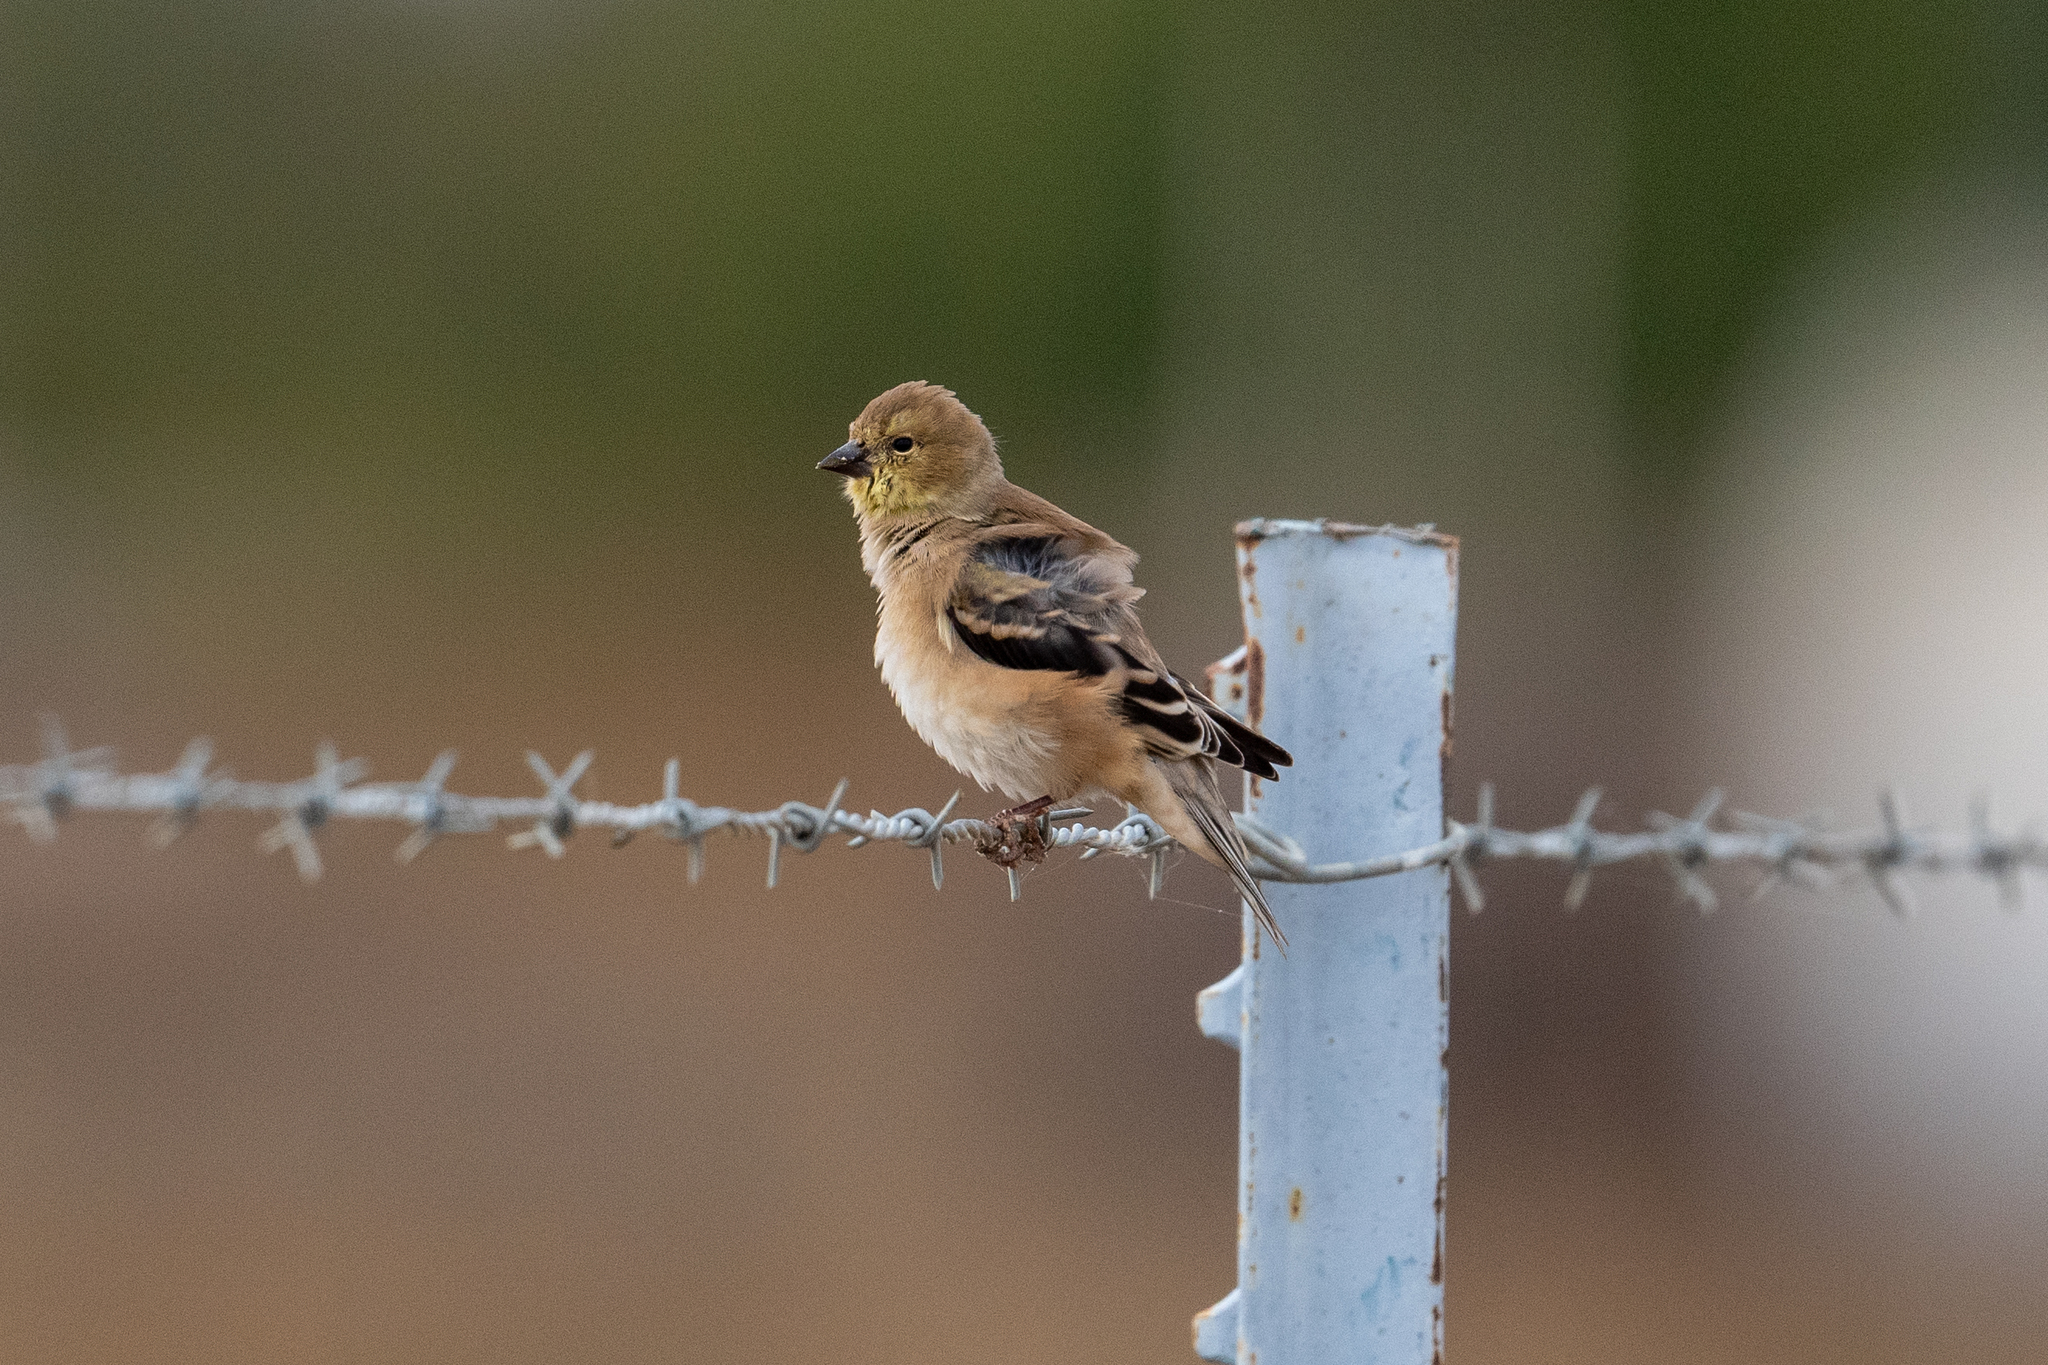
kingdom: Animalia
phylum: Chordata
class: Aves
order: Passeriformes
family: Fringillidae
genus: Spinus
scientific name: Spinus tristis
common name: American goldfinch
